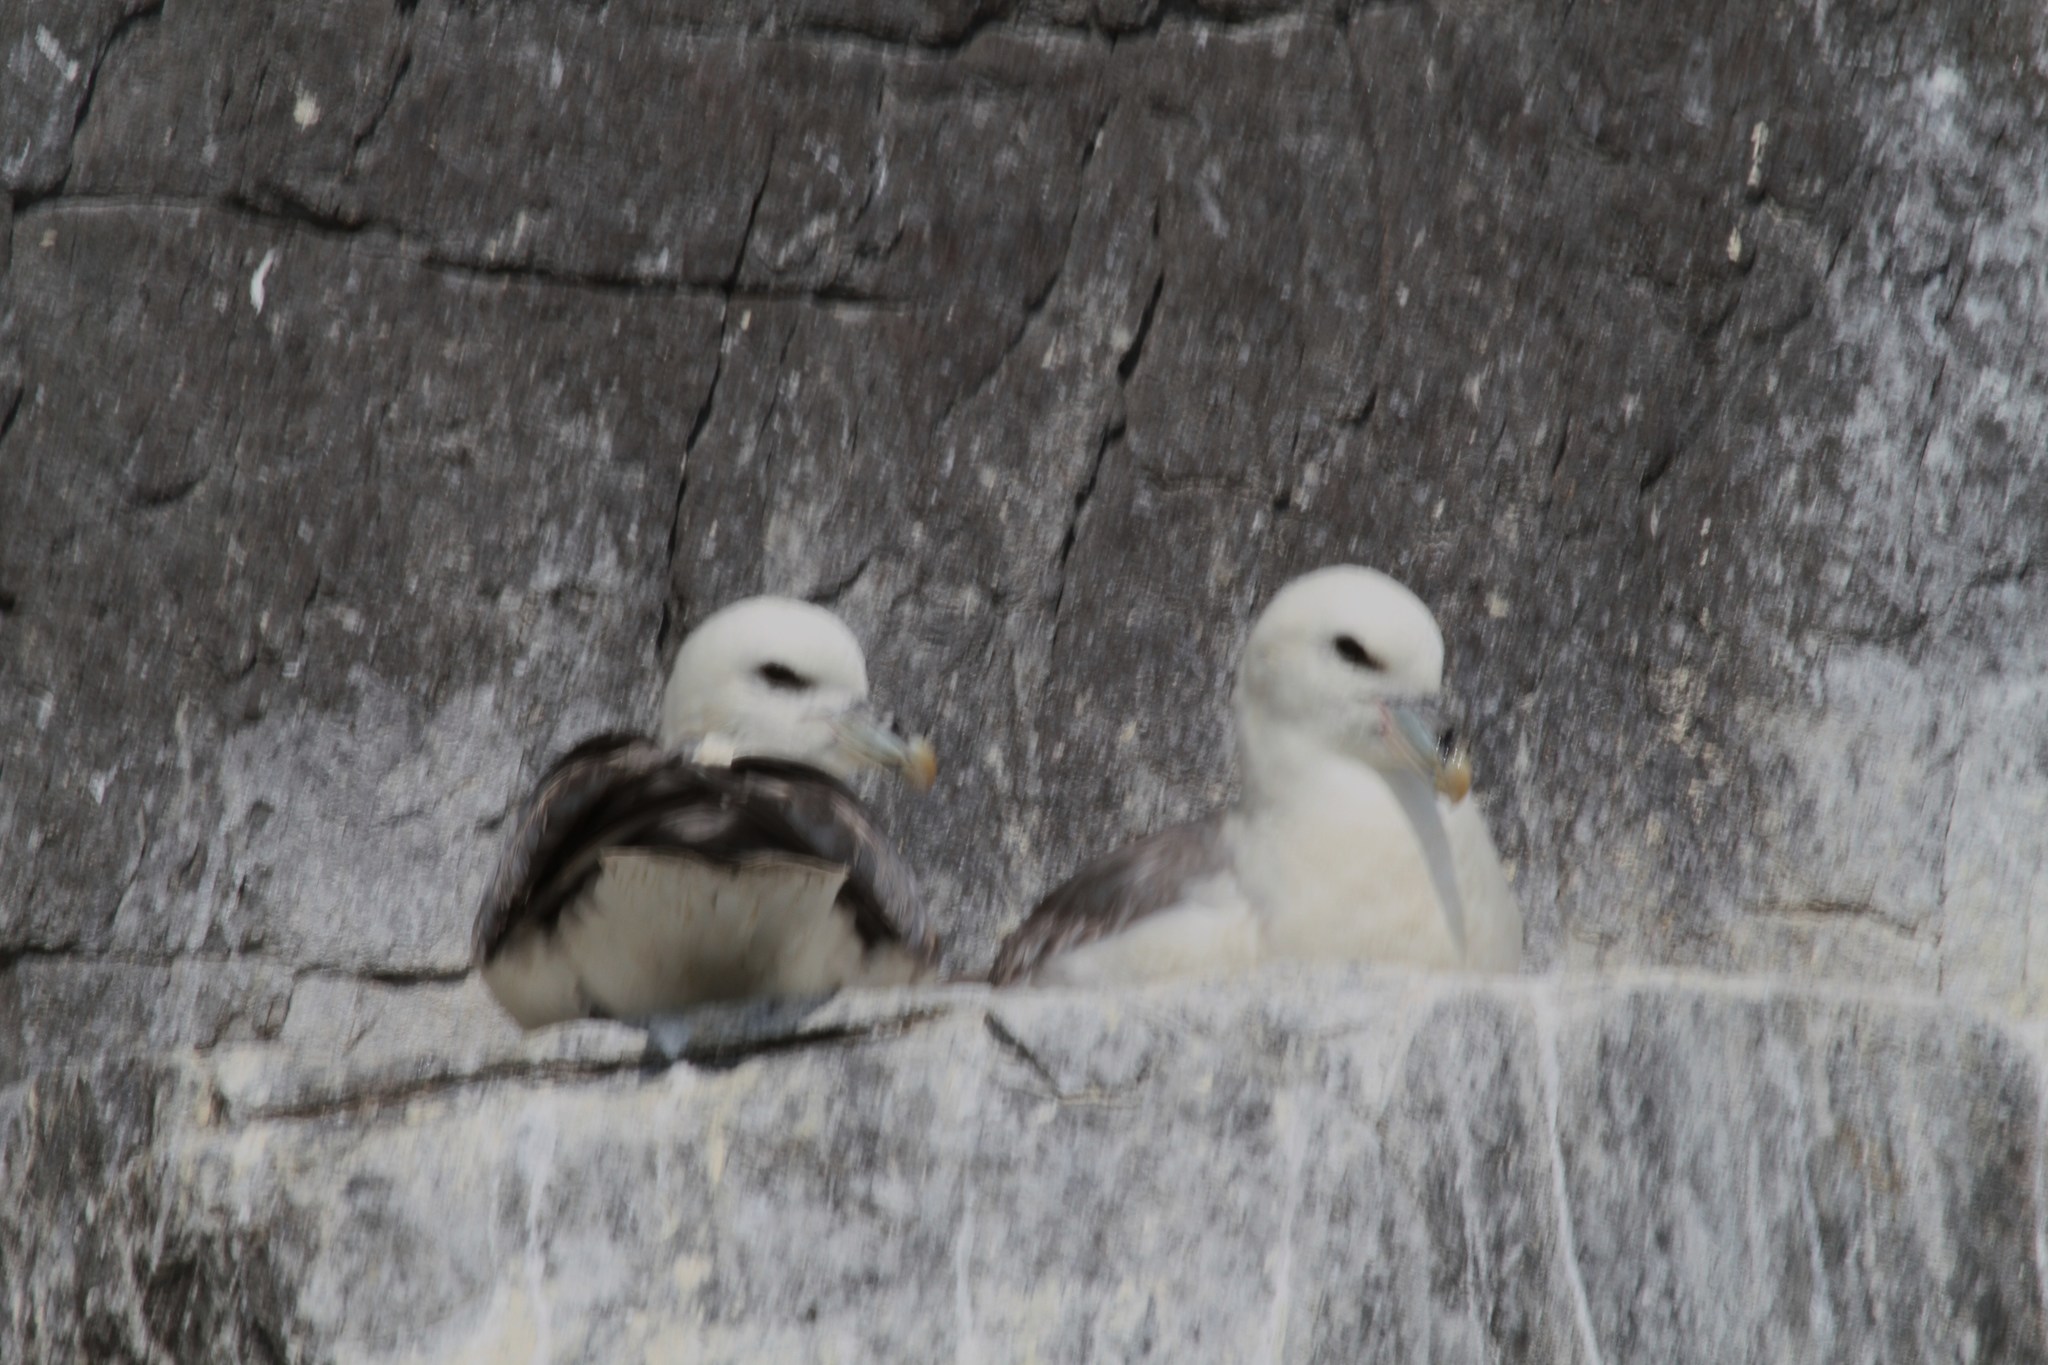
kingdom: Animalia
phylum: Chordata
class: Aves
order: Procellariiformes
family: Procellariidae
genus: Fulmarus
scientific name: Fulmarus glacialis
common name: Northern fulmar
